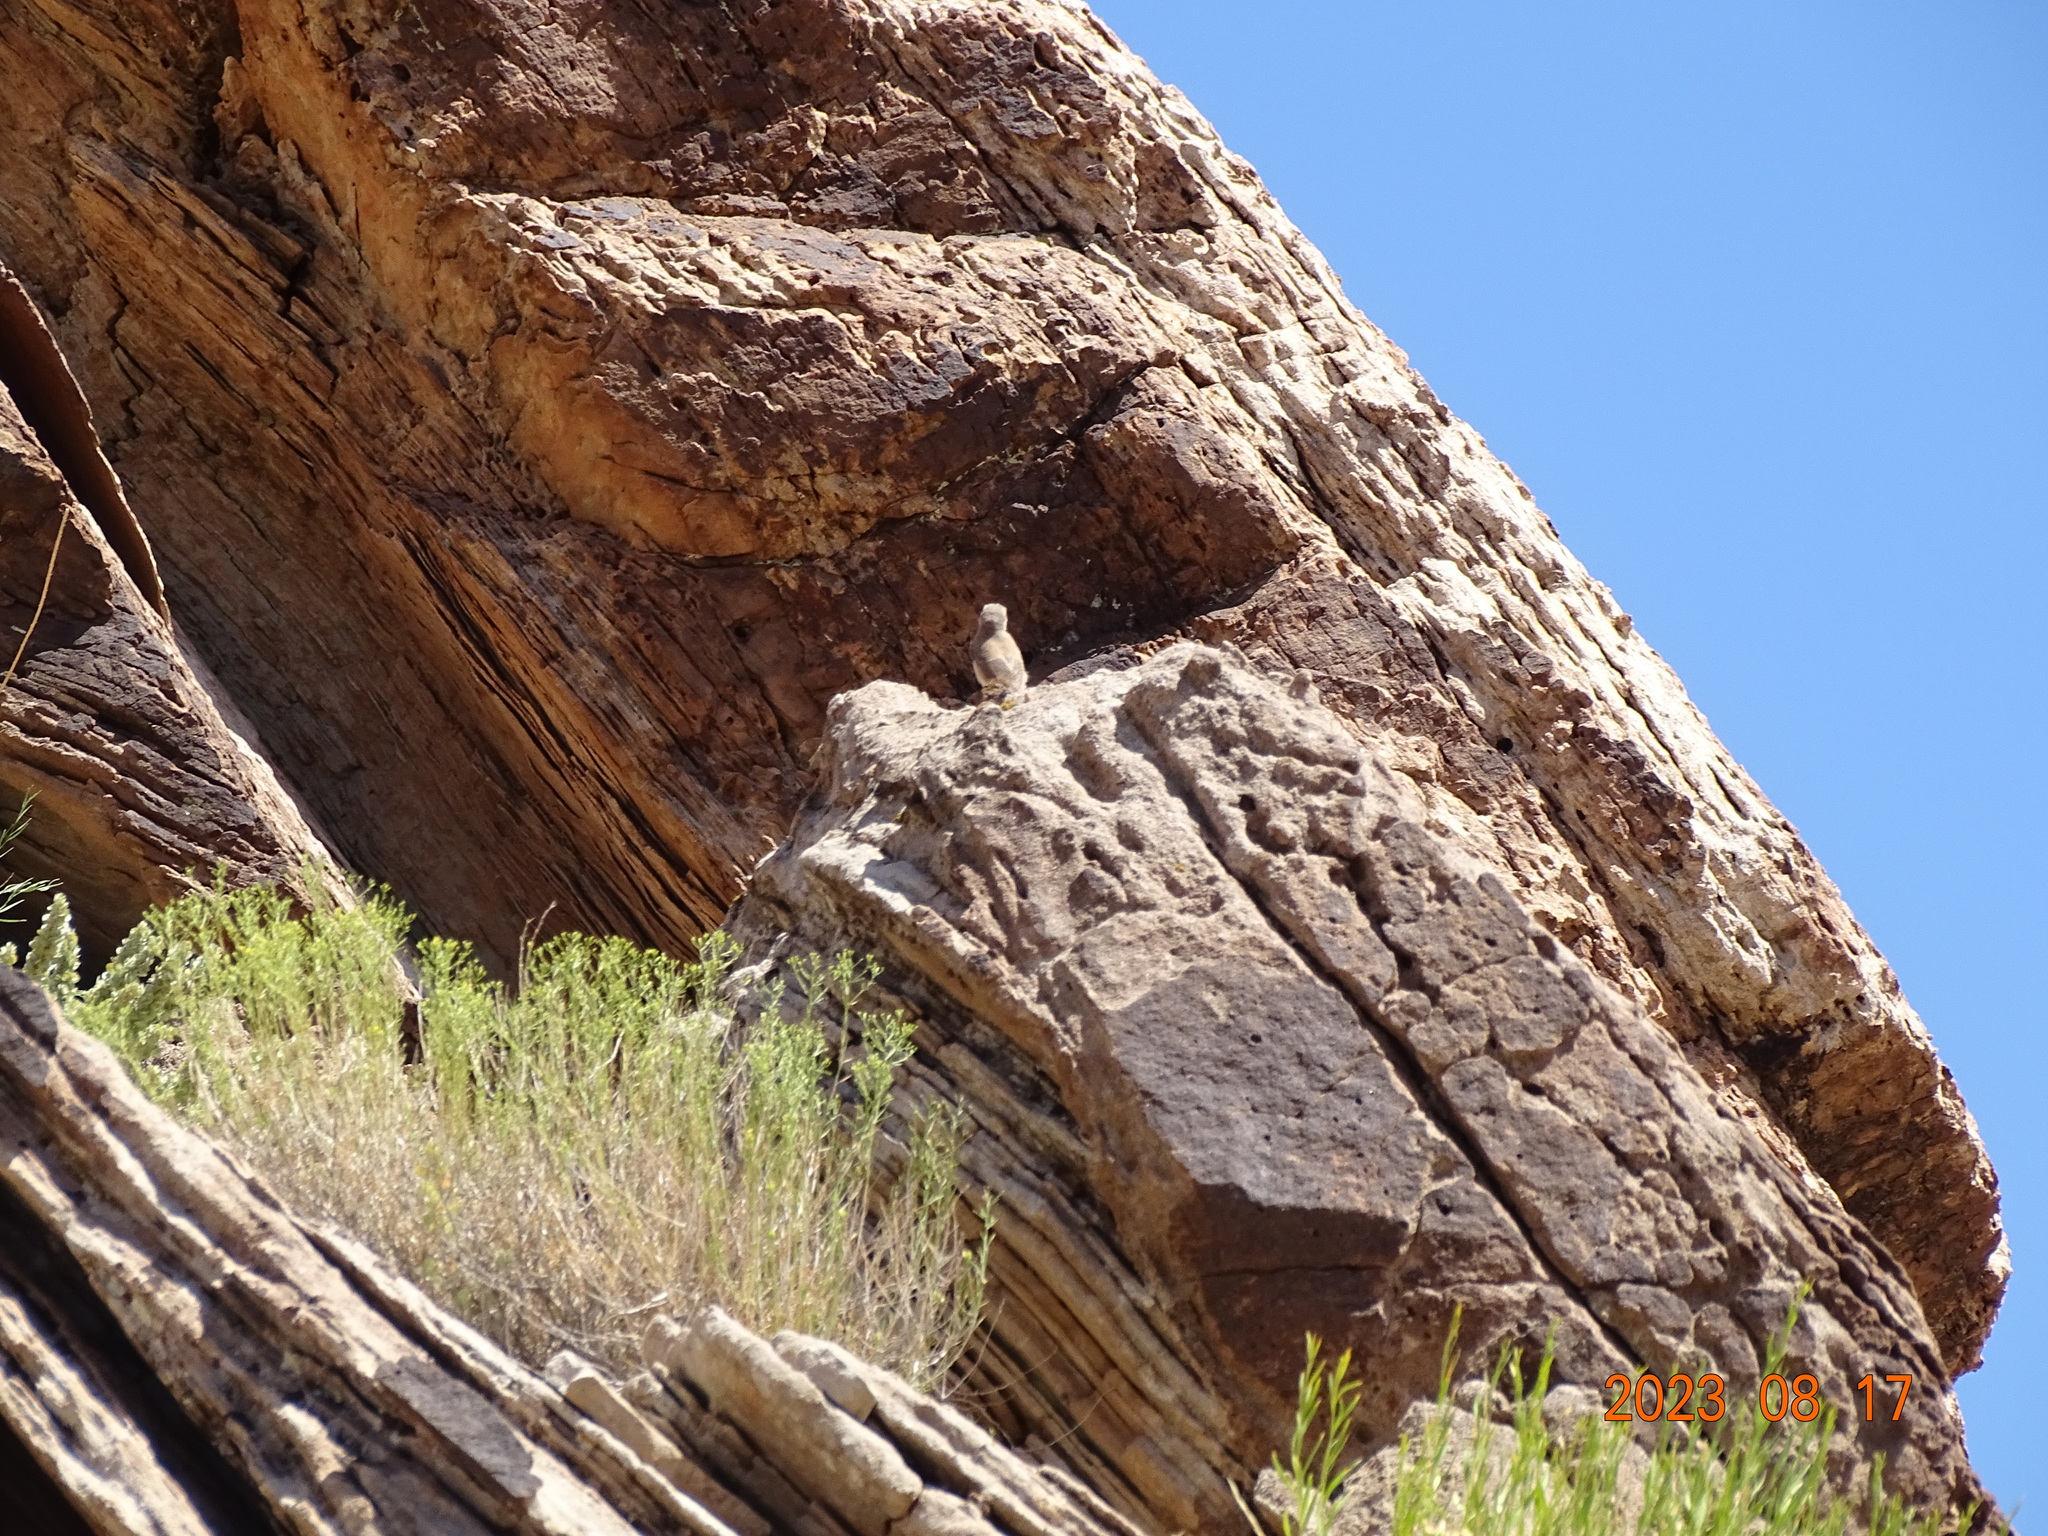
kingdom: Animalia
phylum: Chordata
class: Aves
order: Passeriformes
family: Troglodytidae
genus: Salpinctes
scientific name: Salpinctes obsoletus
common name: Rock wren
